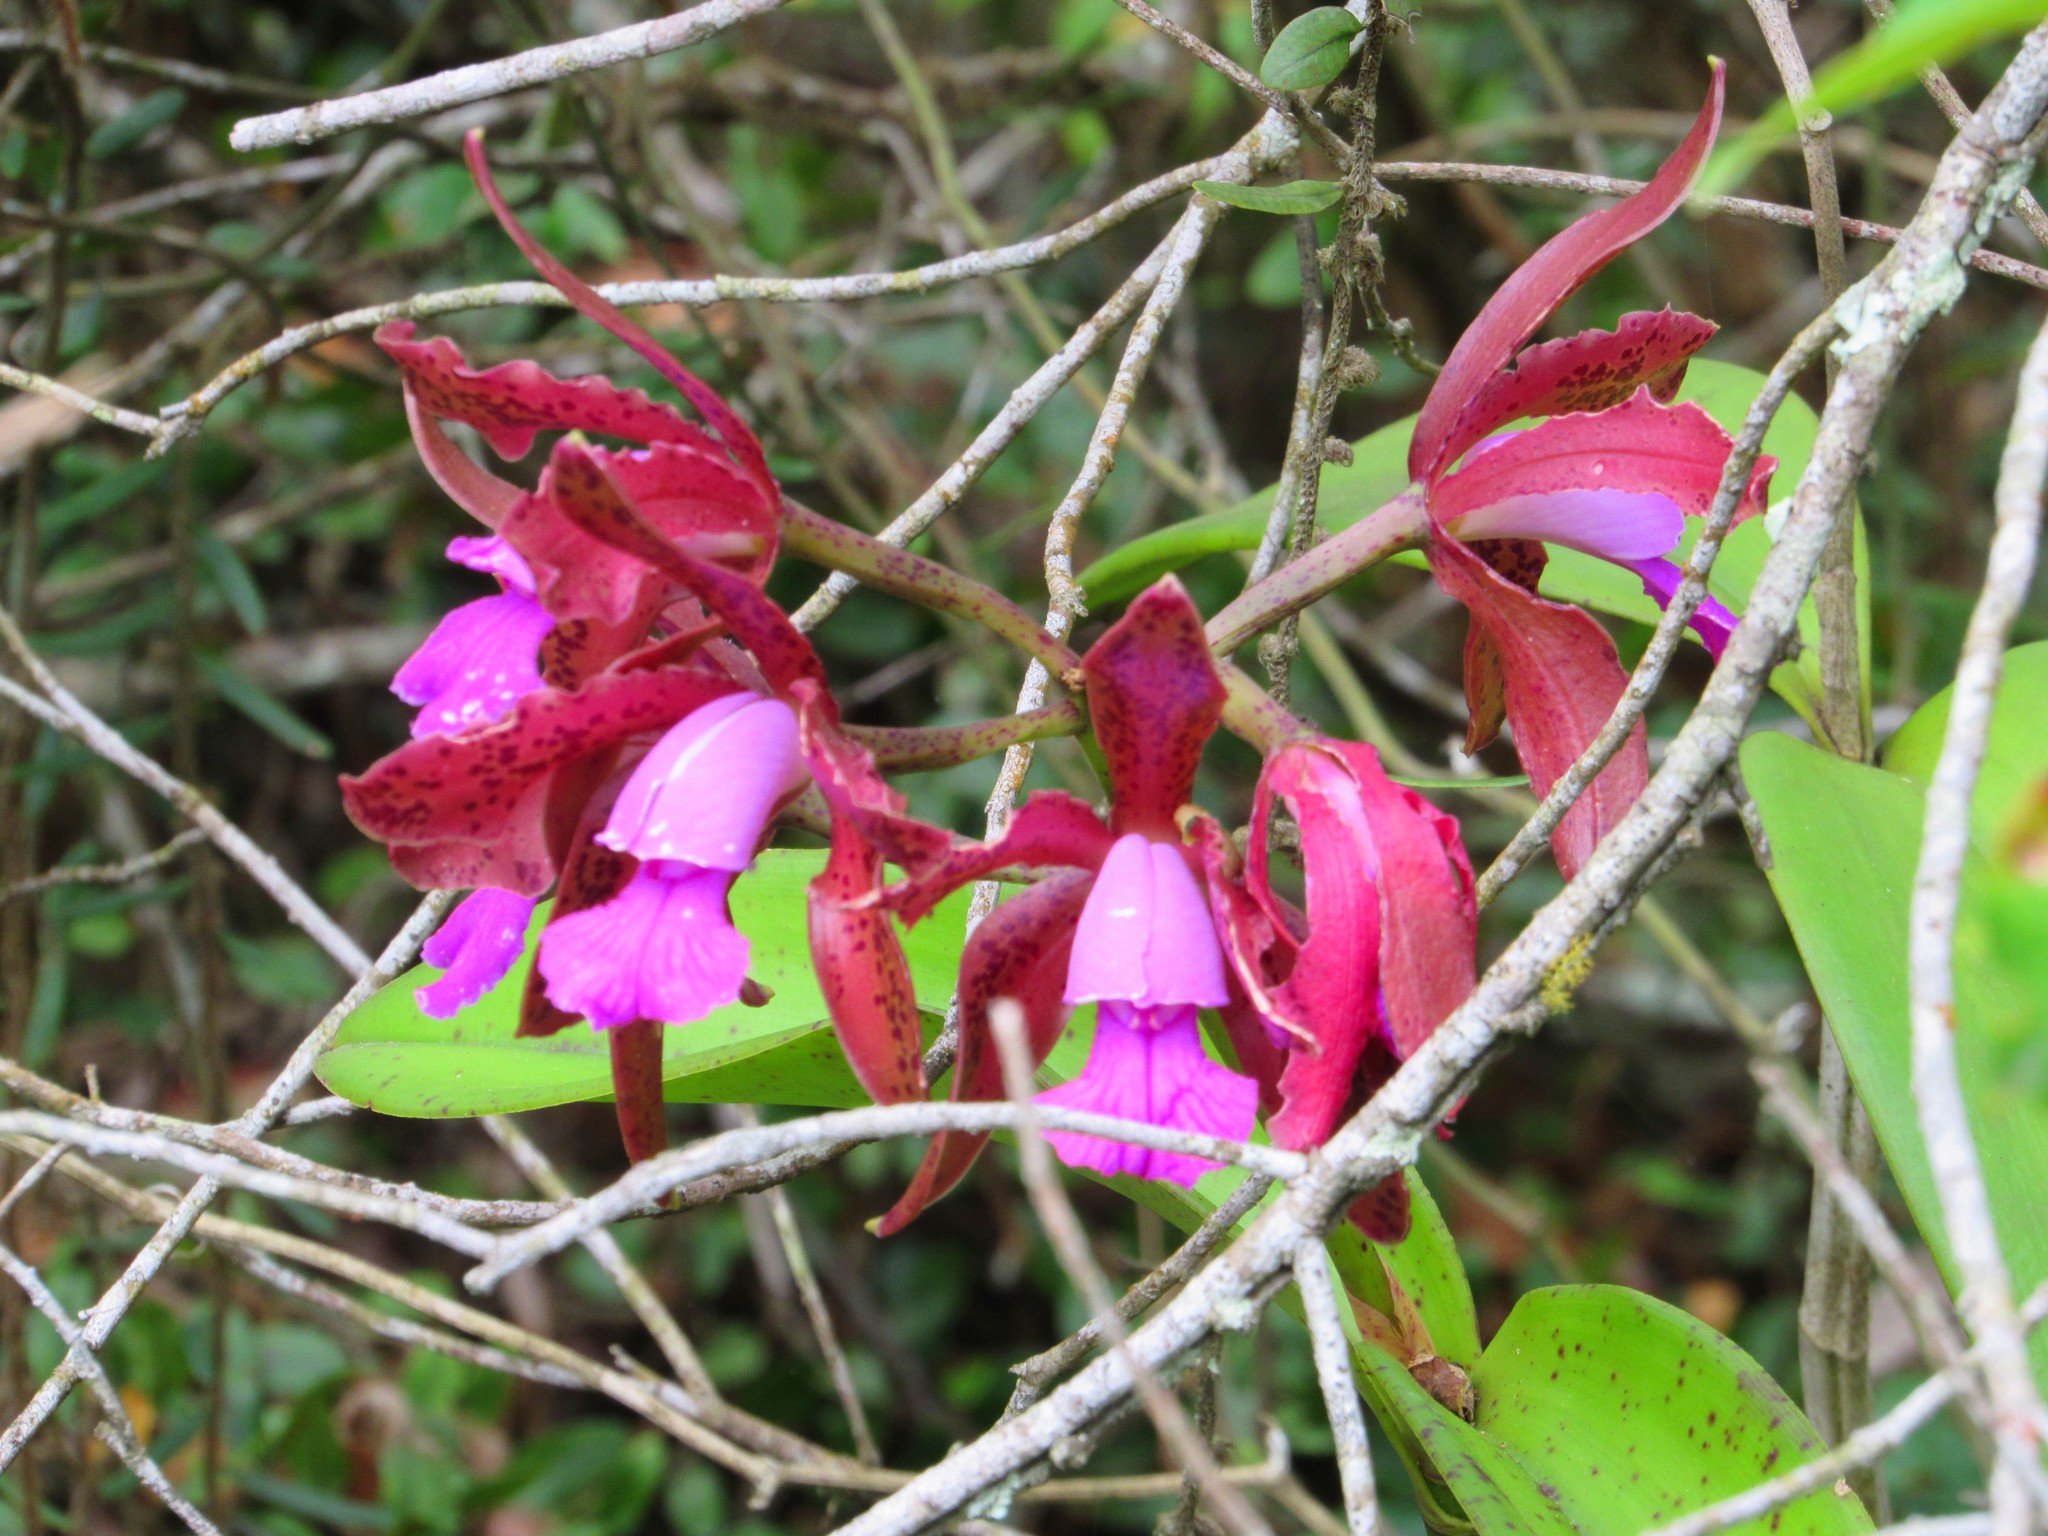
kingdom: Plantae
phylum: Tracheophyta
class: Liliopsida
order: Asparagales
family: Orchidaceae
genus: Cattleya
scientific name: Cattleya tigrina
